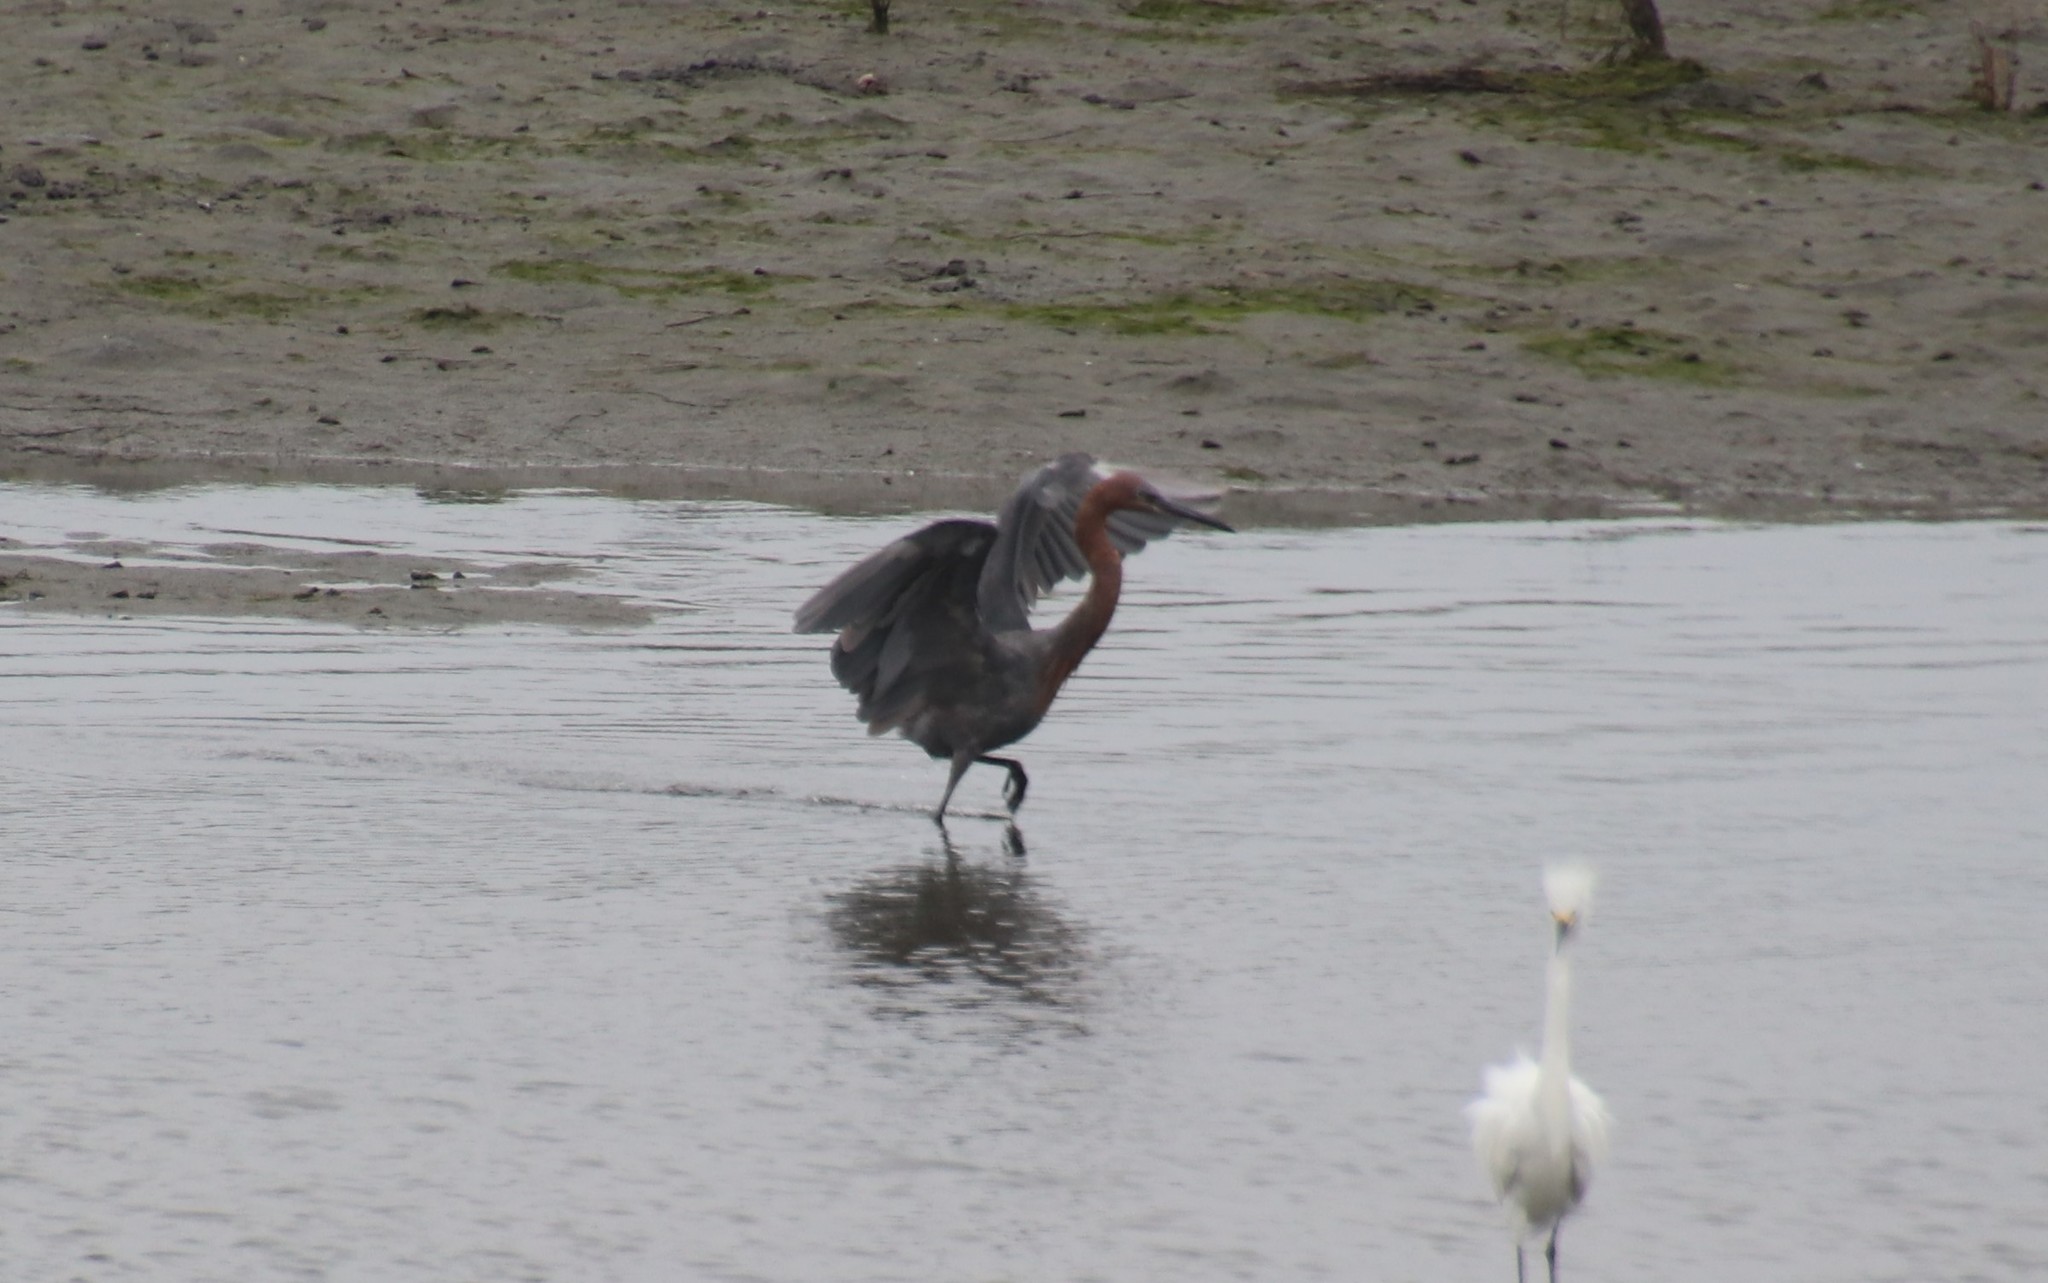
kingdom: Animalia
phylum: Chordata
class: Aves
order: Pelecaniformes
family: Ardeidae
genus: Egretta
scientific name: Egretta rufescens
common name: Reddish egret
